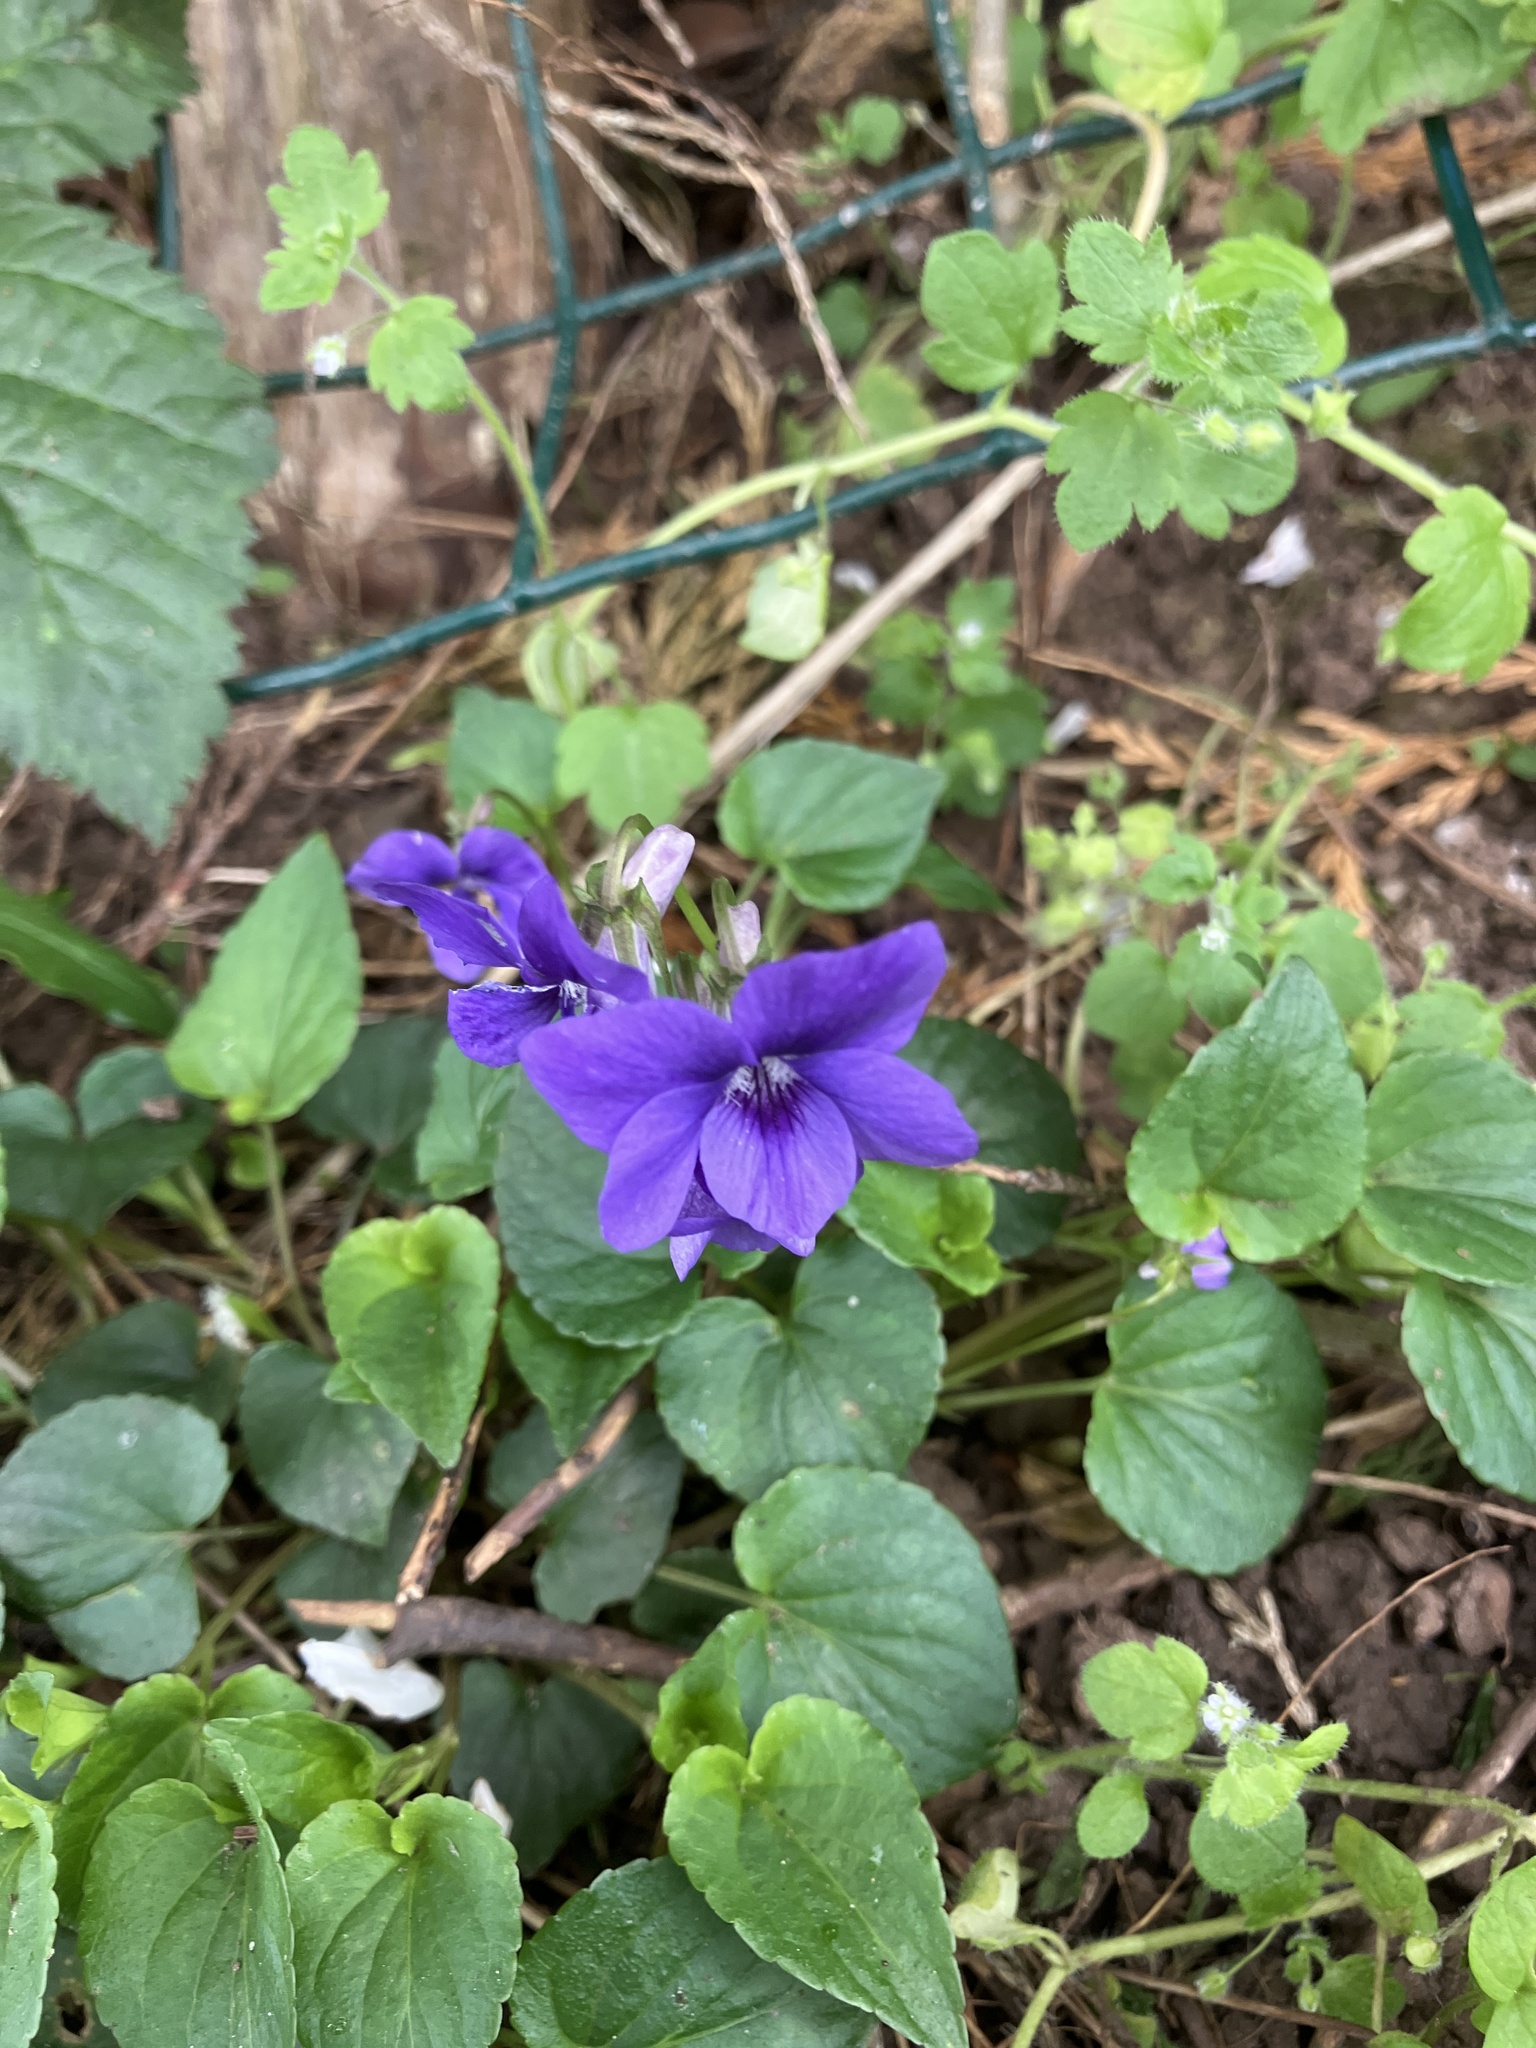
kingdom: Plantae
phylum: Tracheophyta
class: Magnoliopsida
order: Malpighiales
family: Violaceae
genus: Viola
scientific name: Viola riviniana
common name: Common dog-violet
